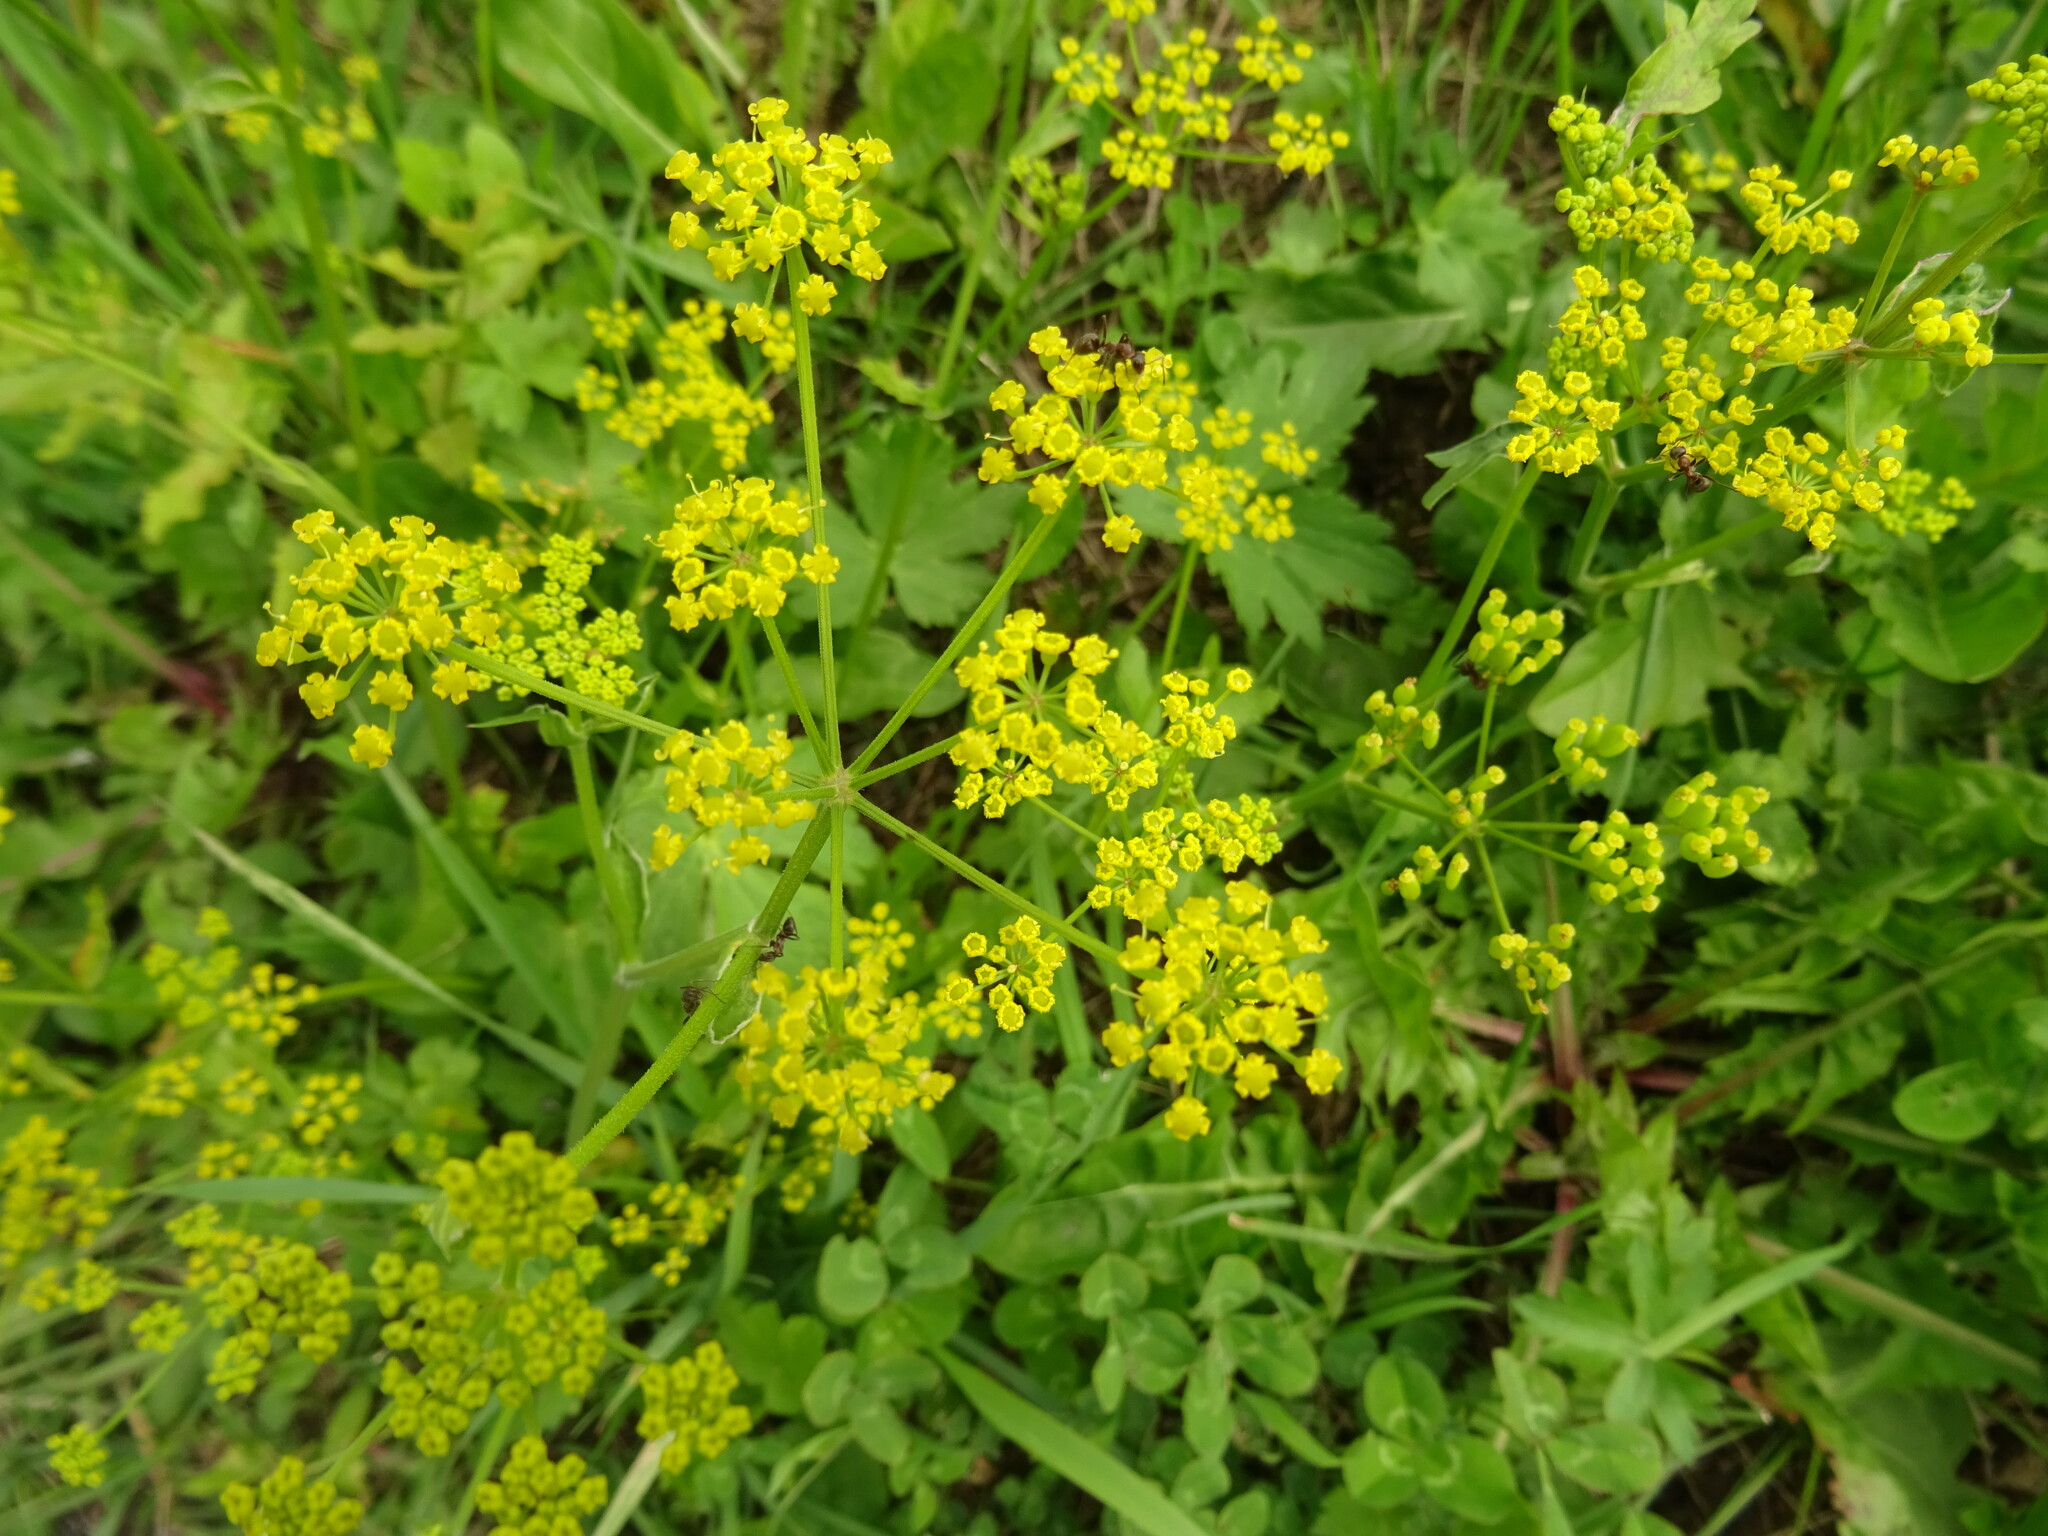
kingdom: Plantae
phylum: Tracheophyta
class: Magnoliopsida
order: Apiales
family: Apiaceae
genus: Pastinaca
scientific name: Pastinaca sativa
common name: Wild parsnip
